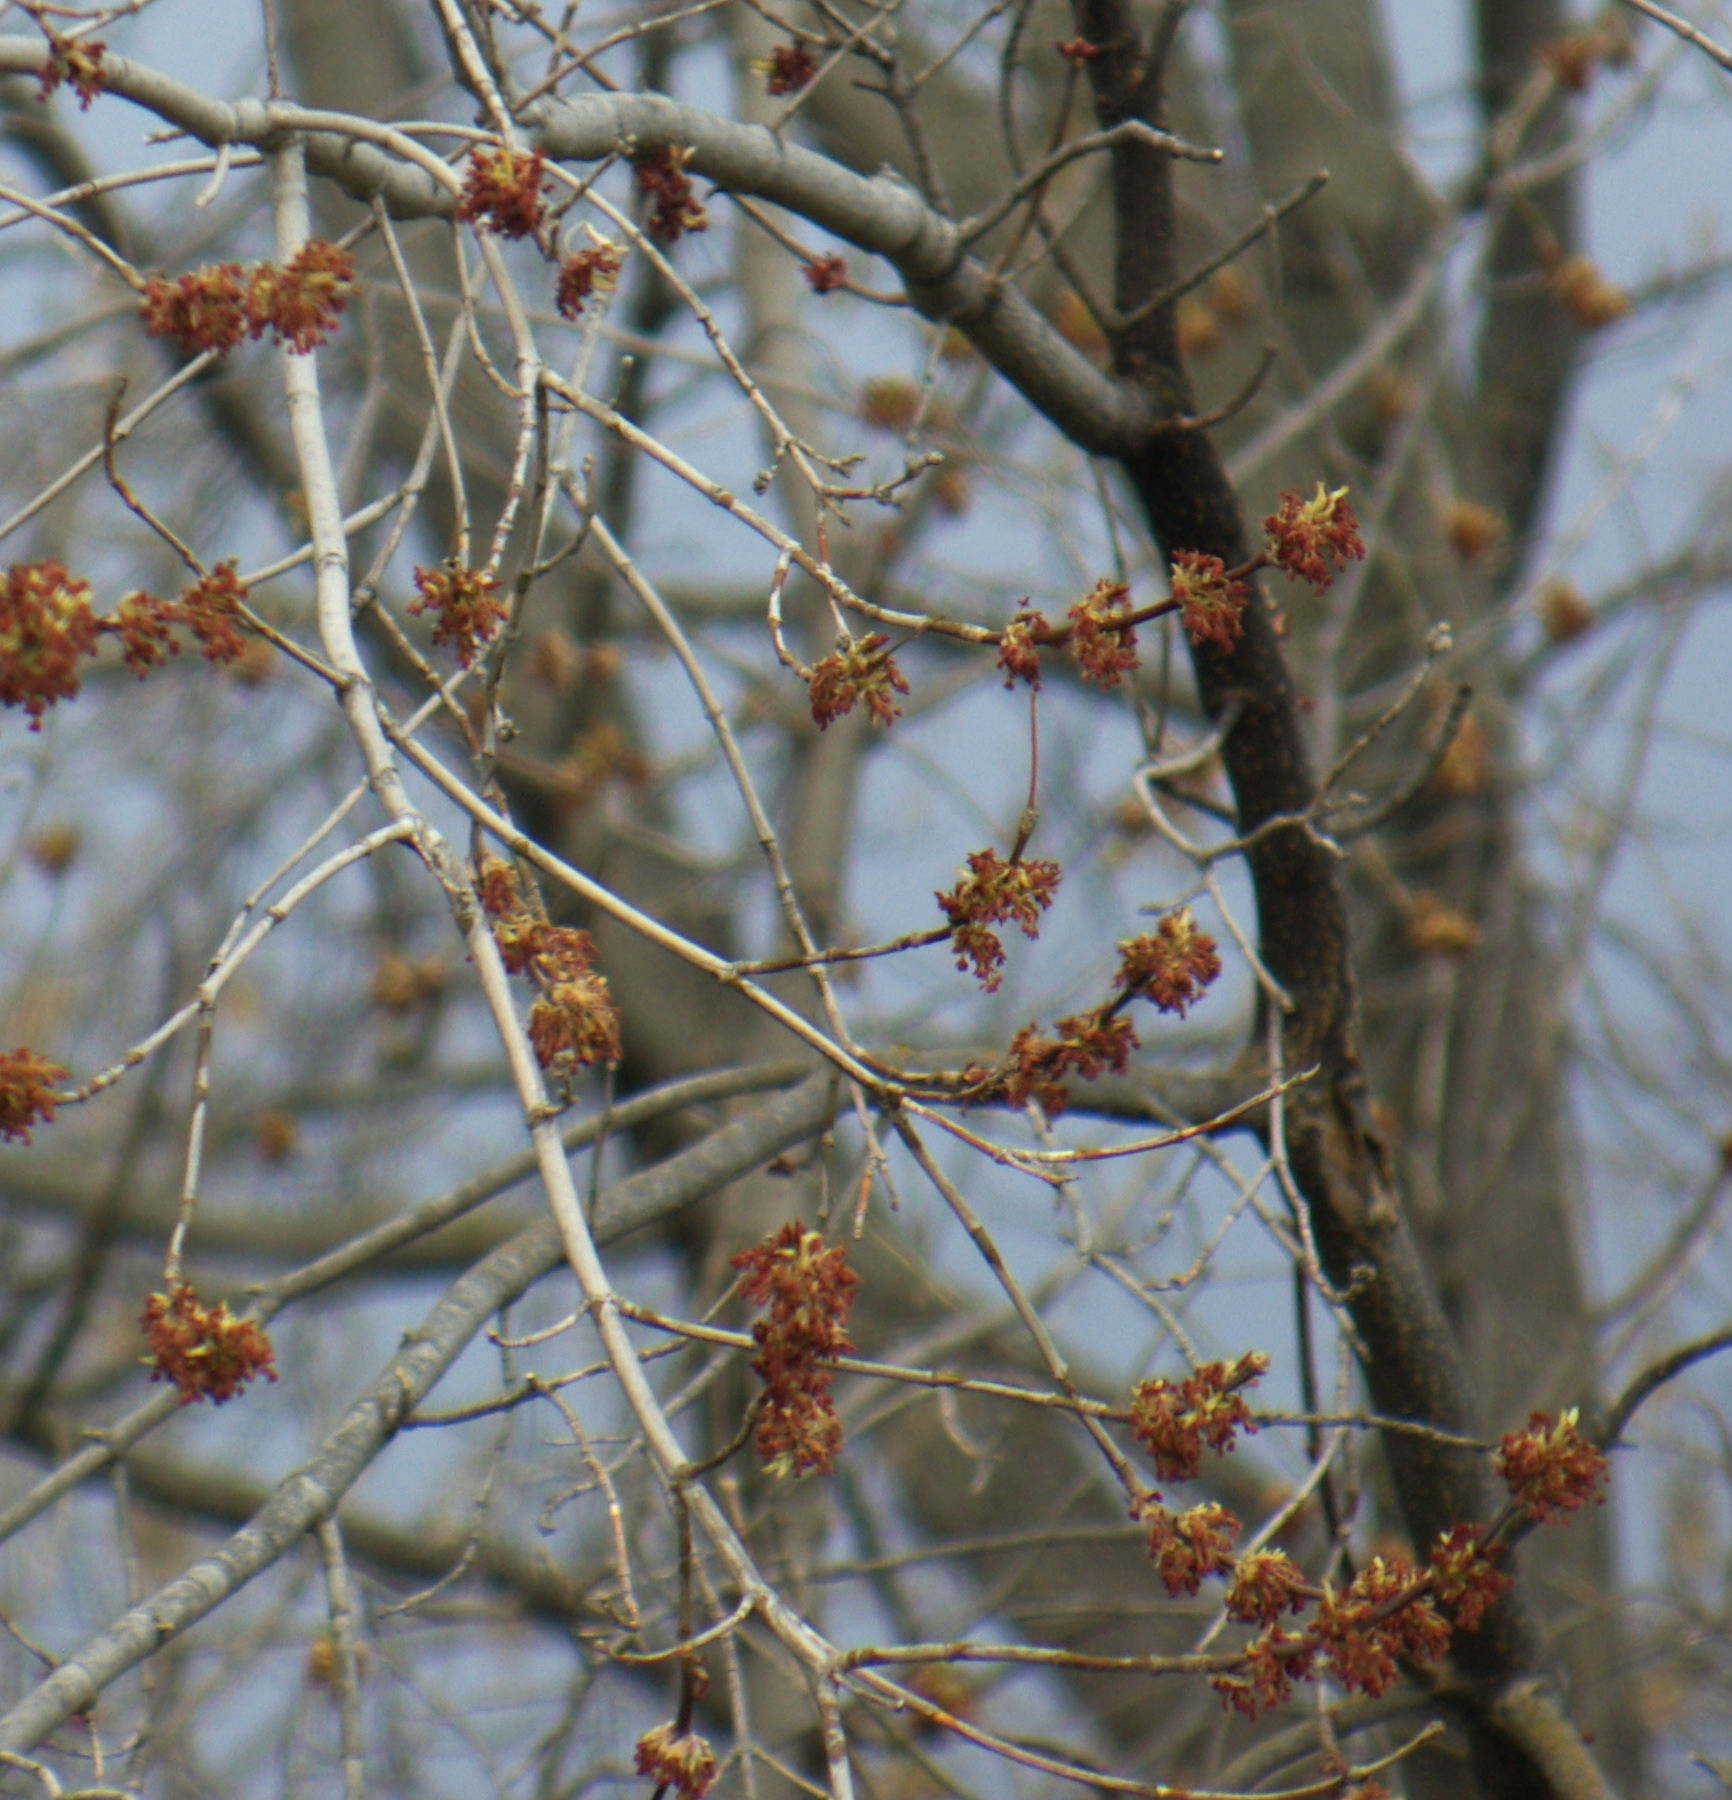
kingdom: Plantae
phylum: Tracheophyta
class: Magnoliopsida
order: Sapindales
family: Sapindaceae
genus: Acer
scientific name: Acer negundo
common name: Ashleaf maple
